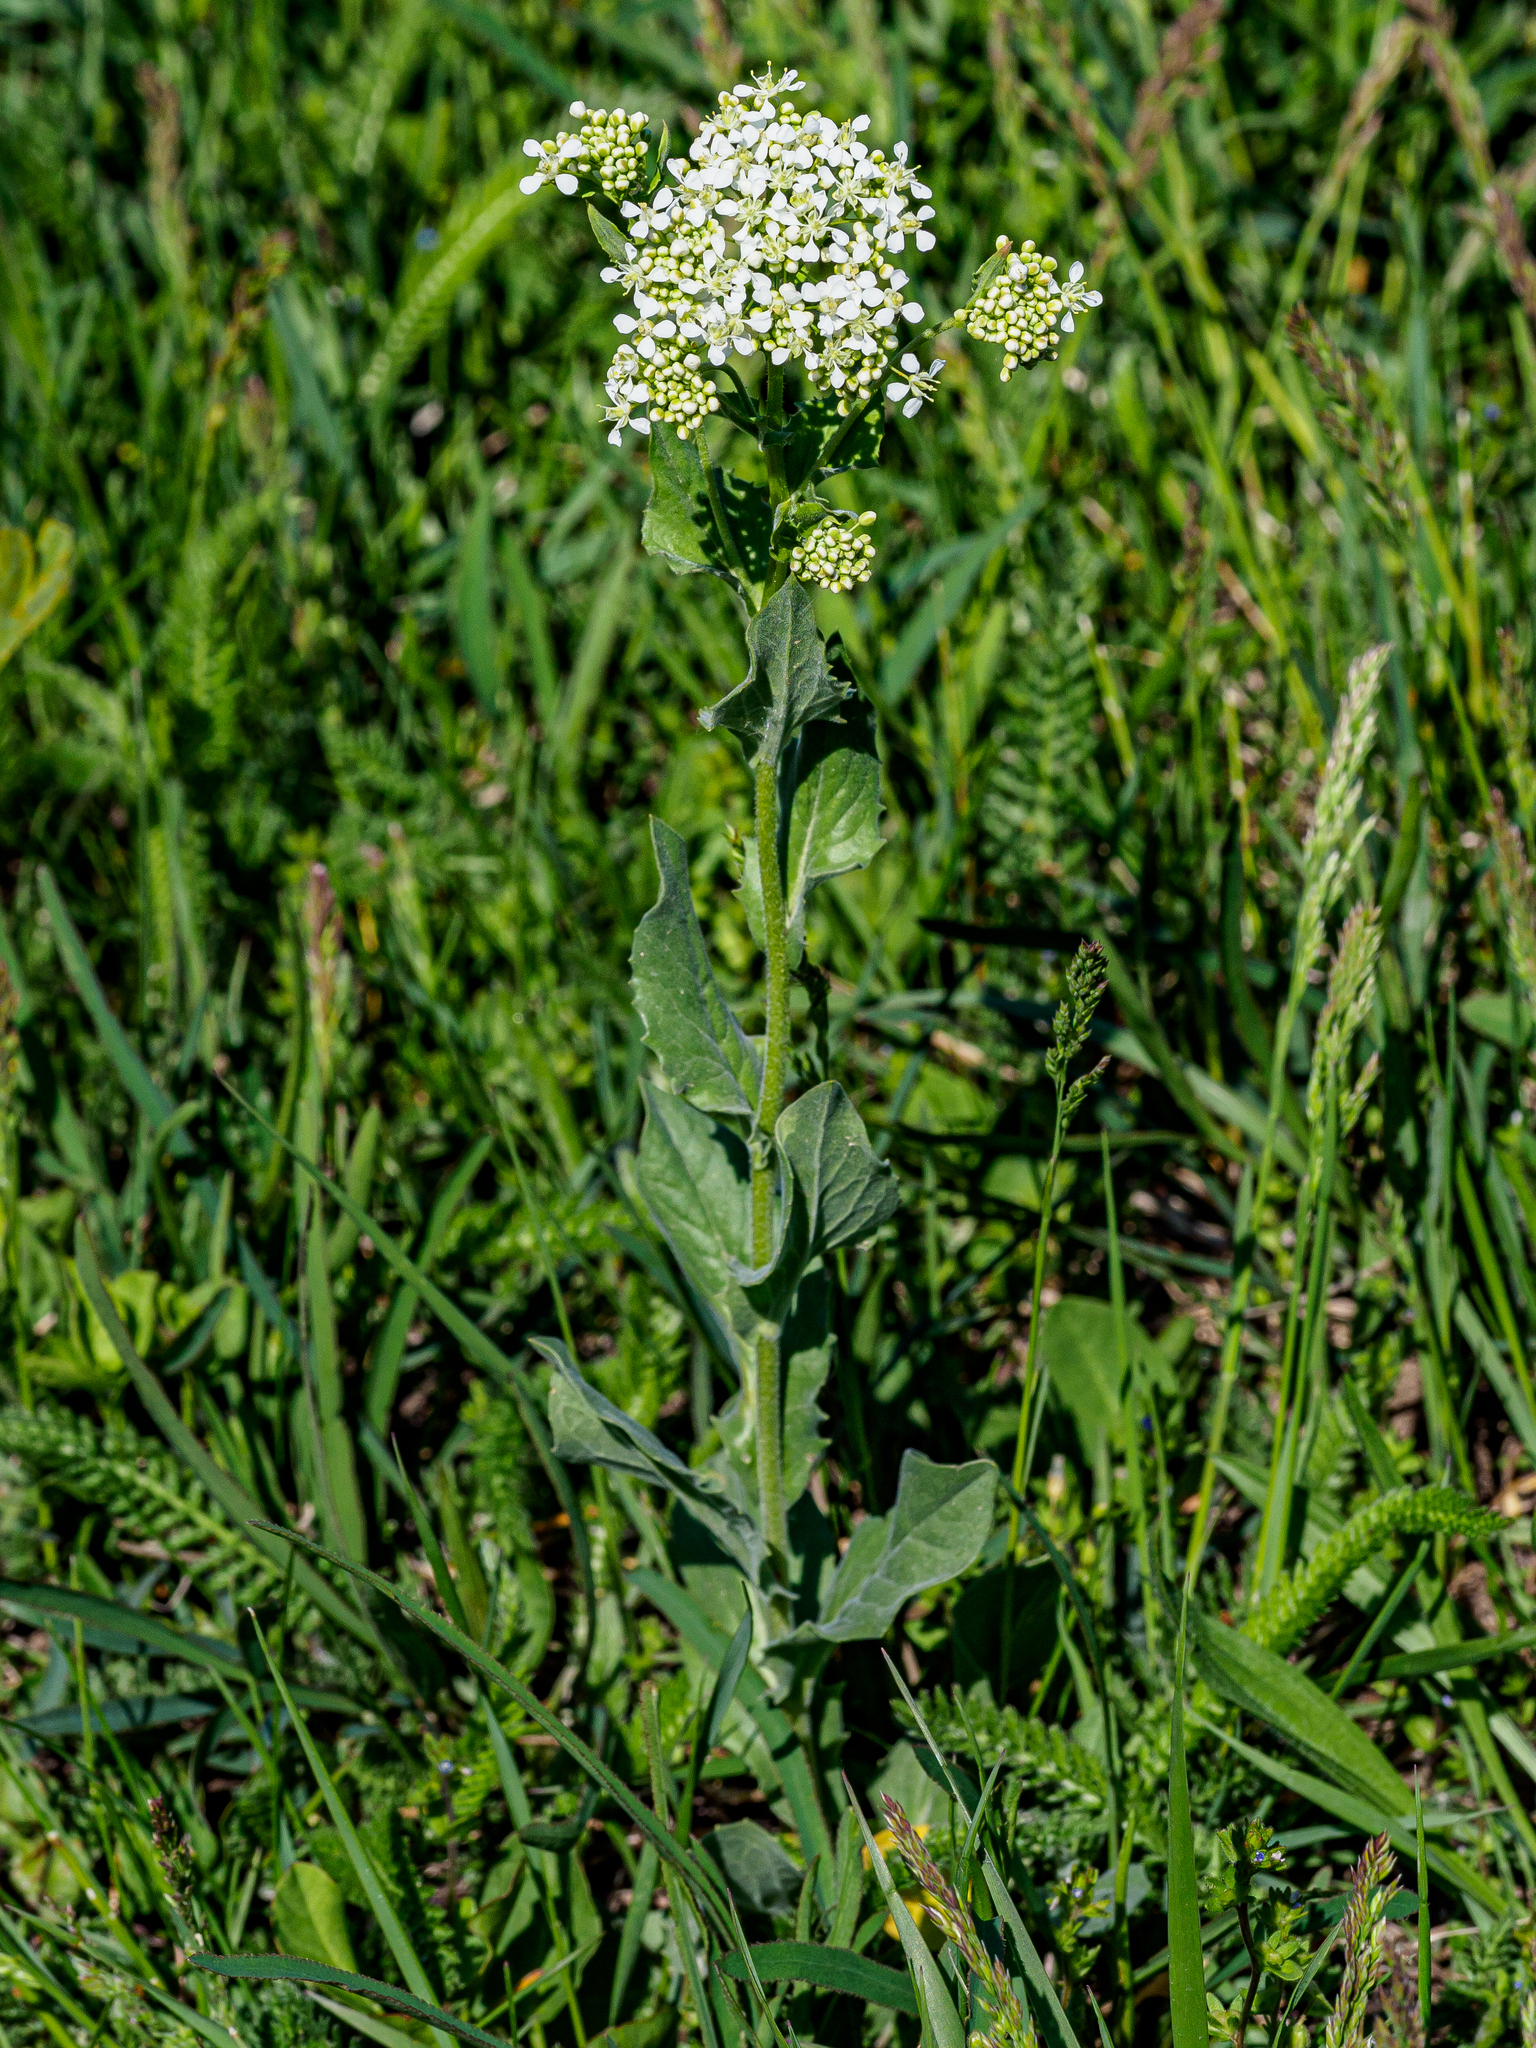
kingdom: Plantae
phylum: Tracheophyta
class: Magnoliopsida
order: Brassicales
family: Brassicaceae
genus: Lepidium
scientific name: Lepidium draba
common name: Hoary cress
